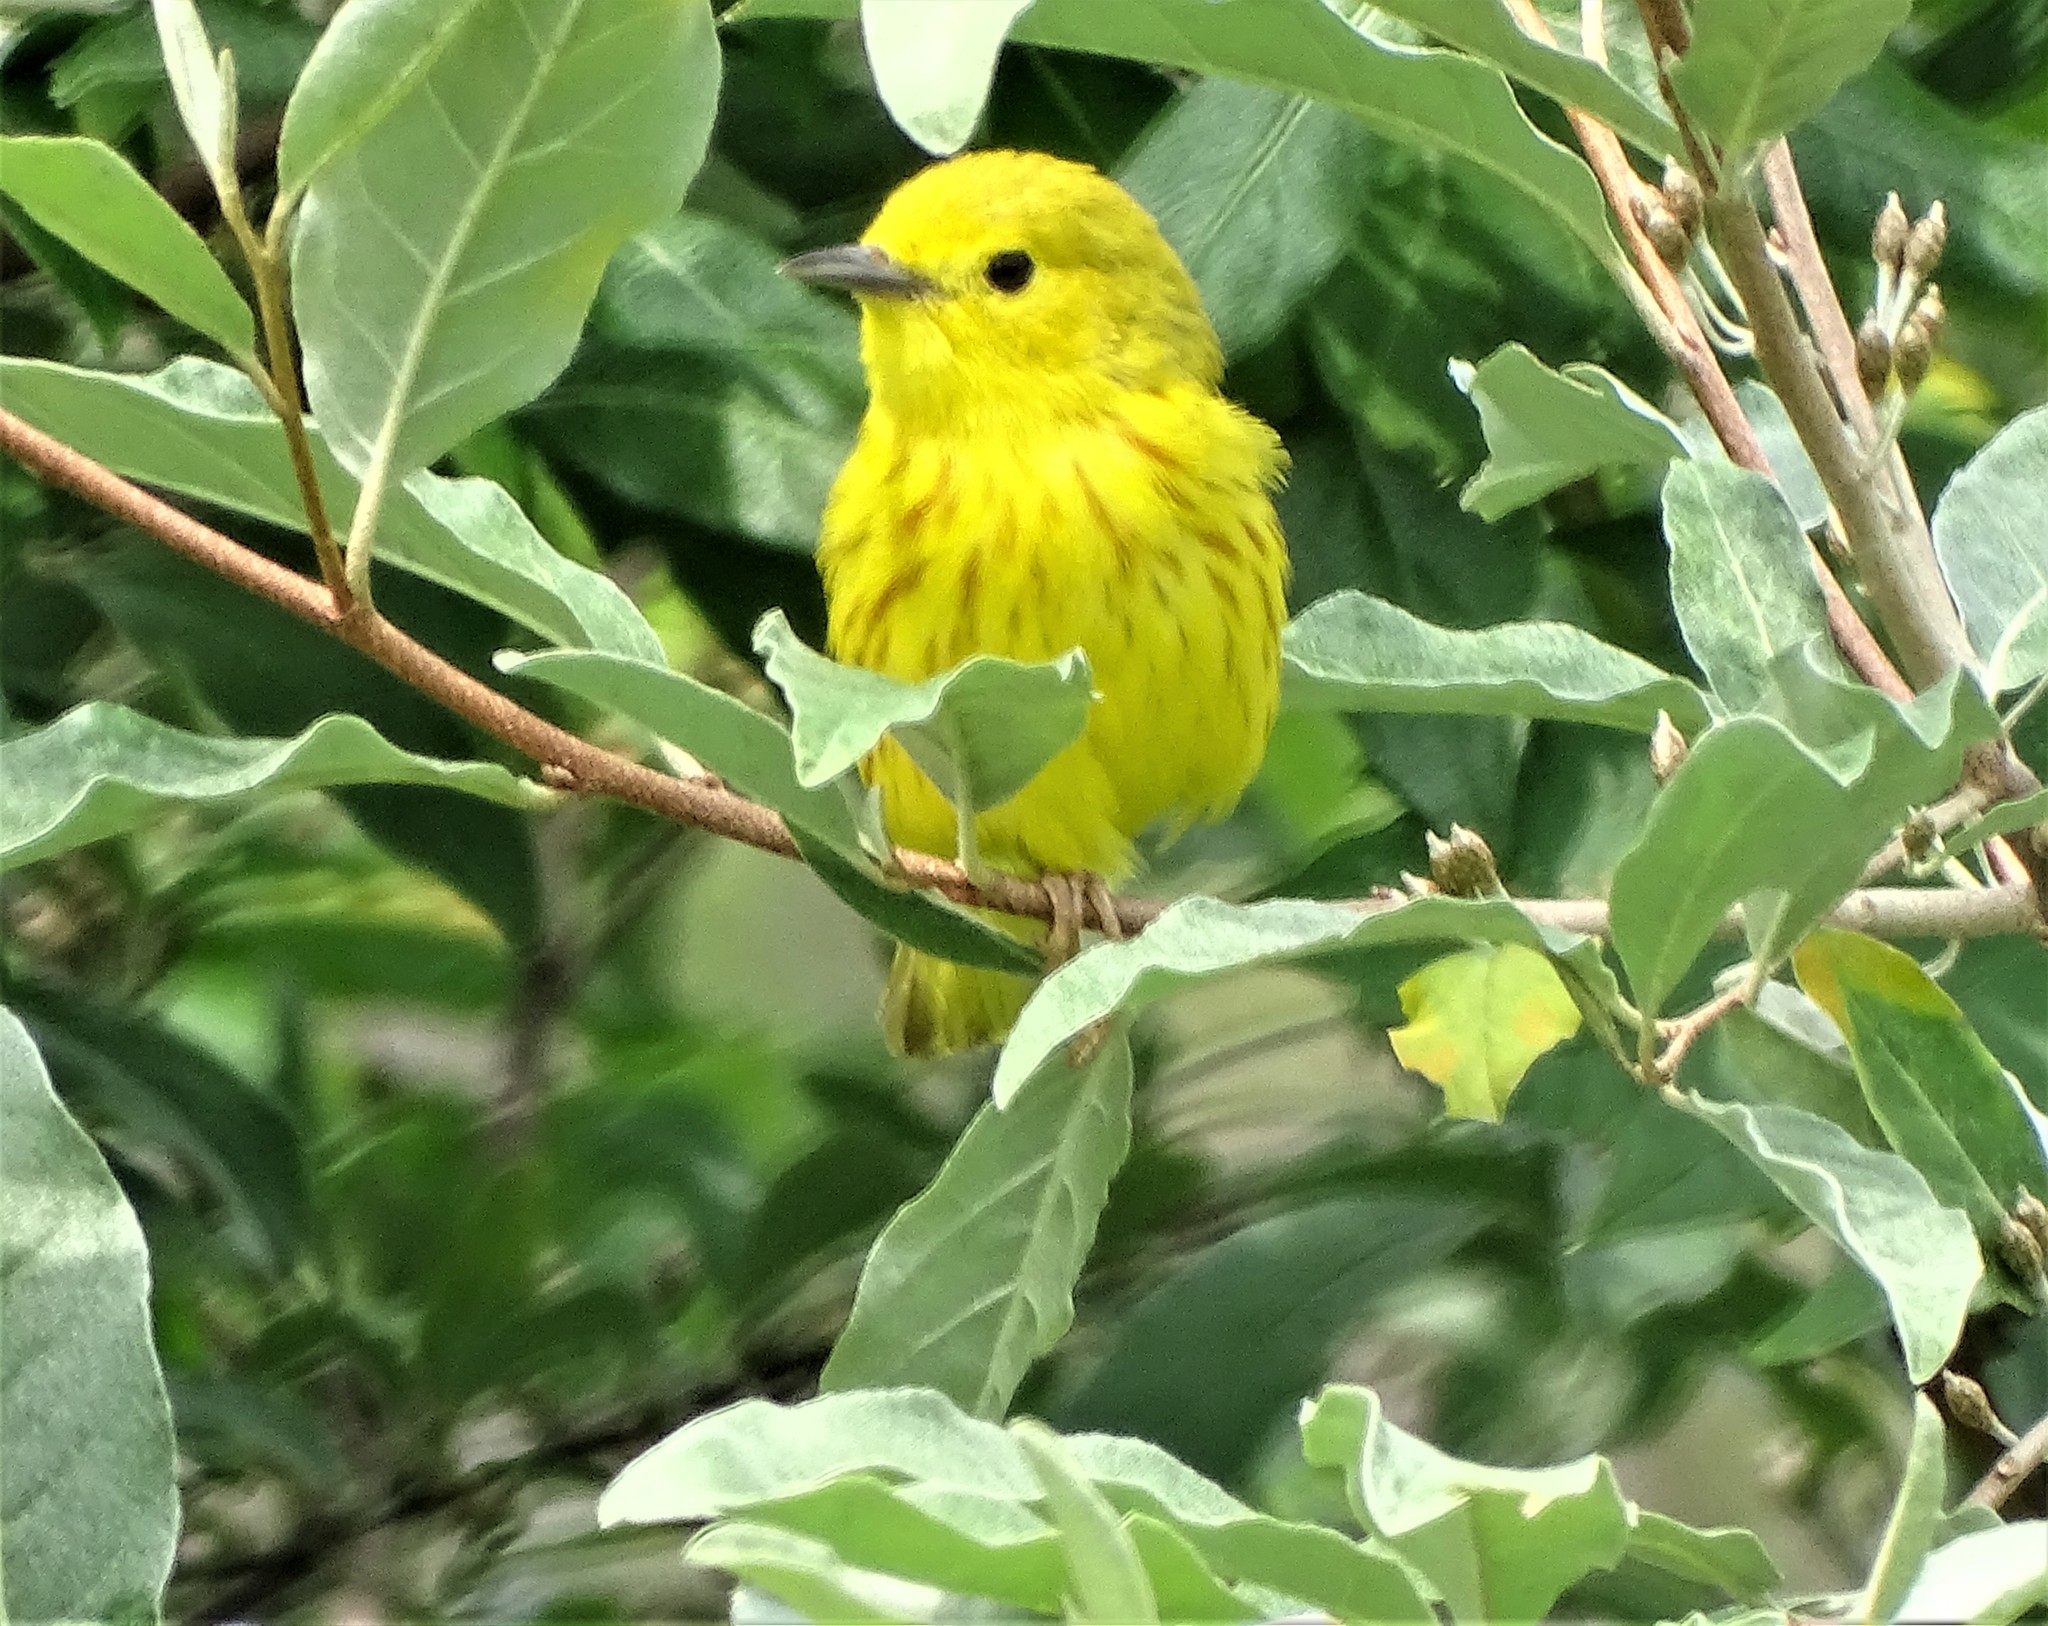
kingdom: Animalia
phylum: Chordata
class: Aves
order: Passeriformes
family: Parulidae
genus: Setophaga
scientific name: Setophaga petechia
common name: Yellow warbler
